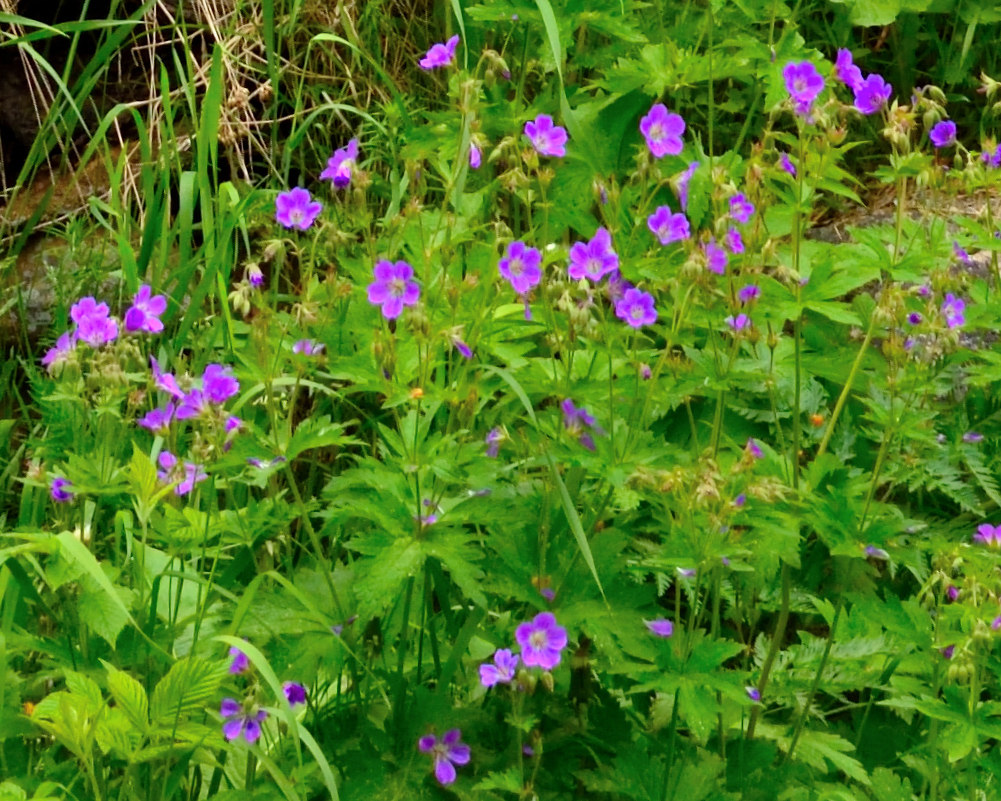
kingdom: Plantae
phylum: Tracheophyta
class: Magnoliopsida
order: Geraniales
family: Geraniaceae
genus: Geranium
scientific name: Geranium sylvaticum
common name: Wood crane's-bill
